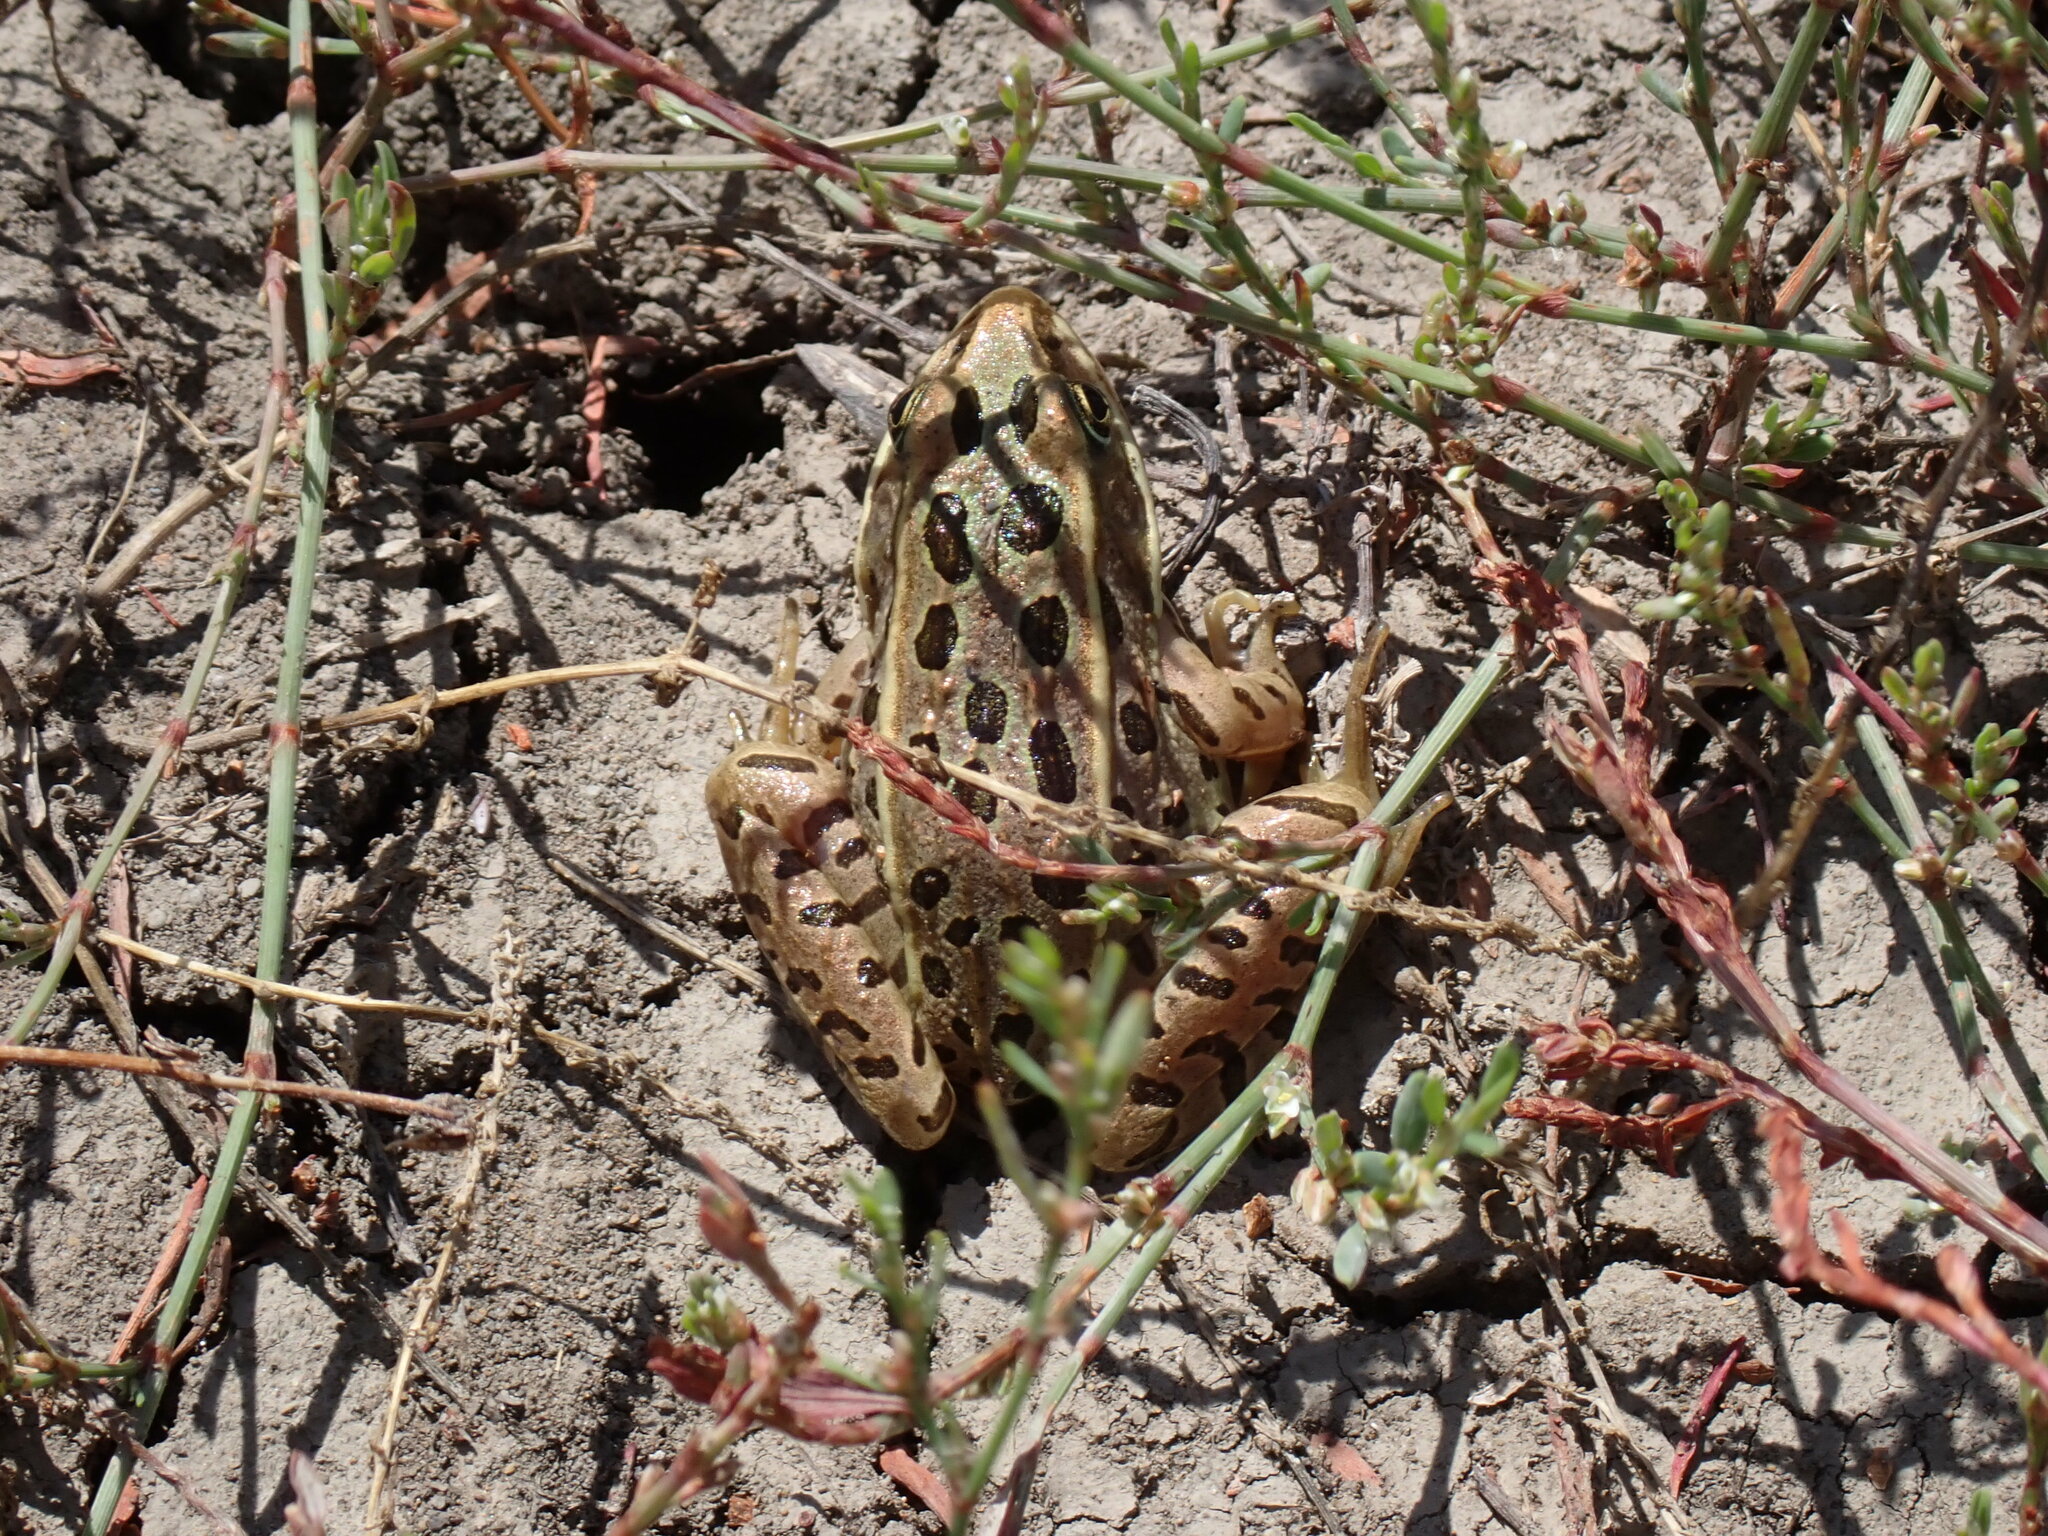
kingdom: Animalia
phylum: Chordata
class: Amphibia
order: Anura
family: Ranidae
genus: Lithobates
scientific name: Lithobates pipiens
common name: Northern leopard frog
